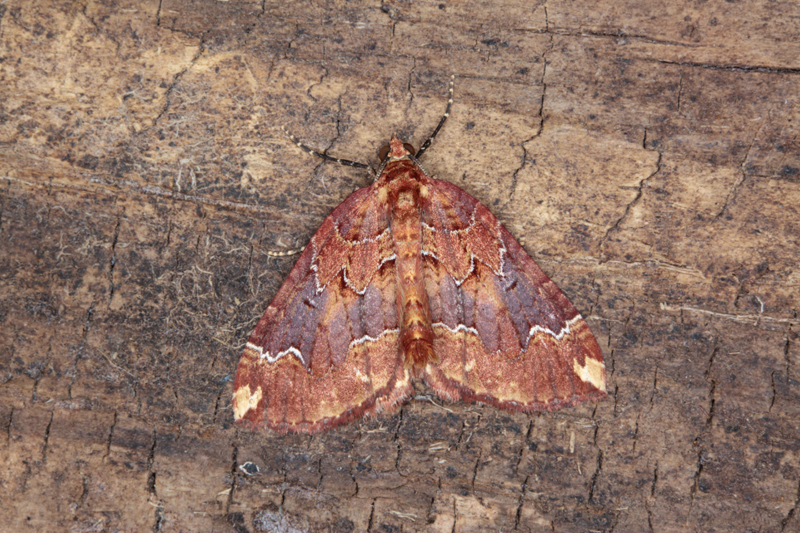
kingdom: Animalia
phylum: Arthropoda
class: Insecta
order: Lepidoptera
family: Geometridae
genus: Austrocidaria
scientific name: Austrocidaria haemophaea
